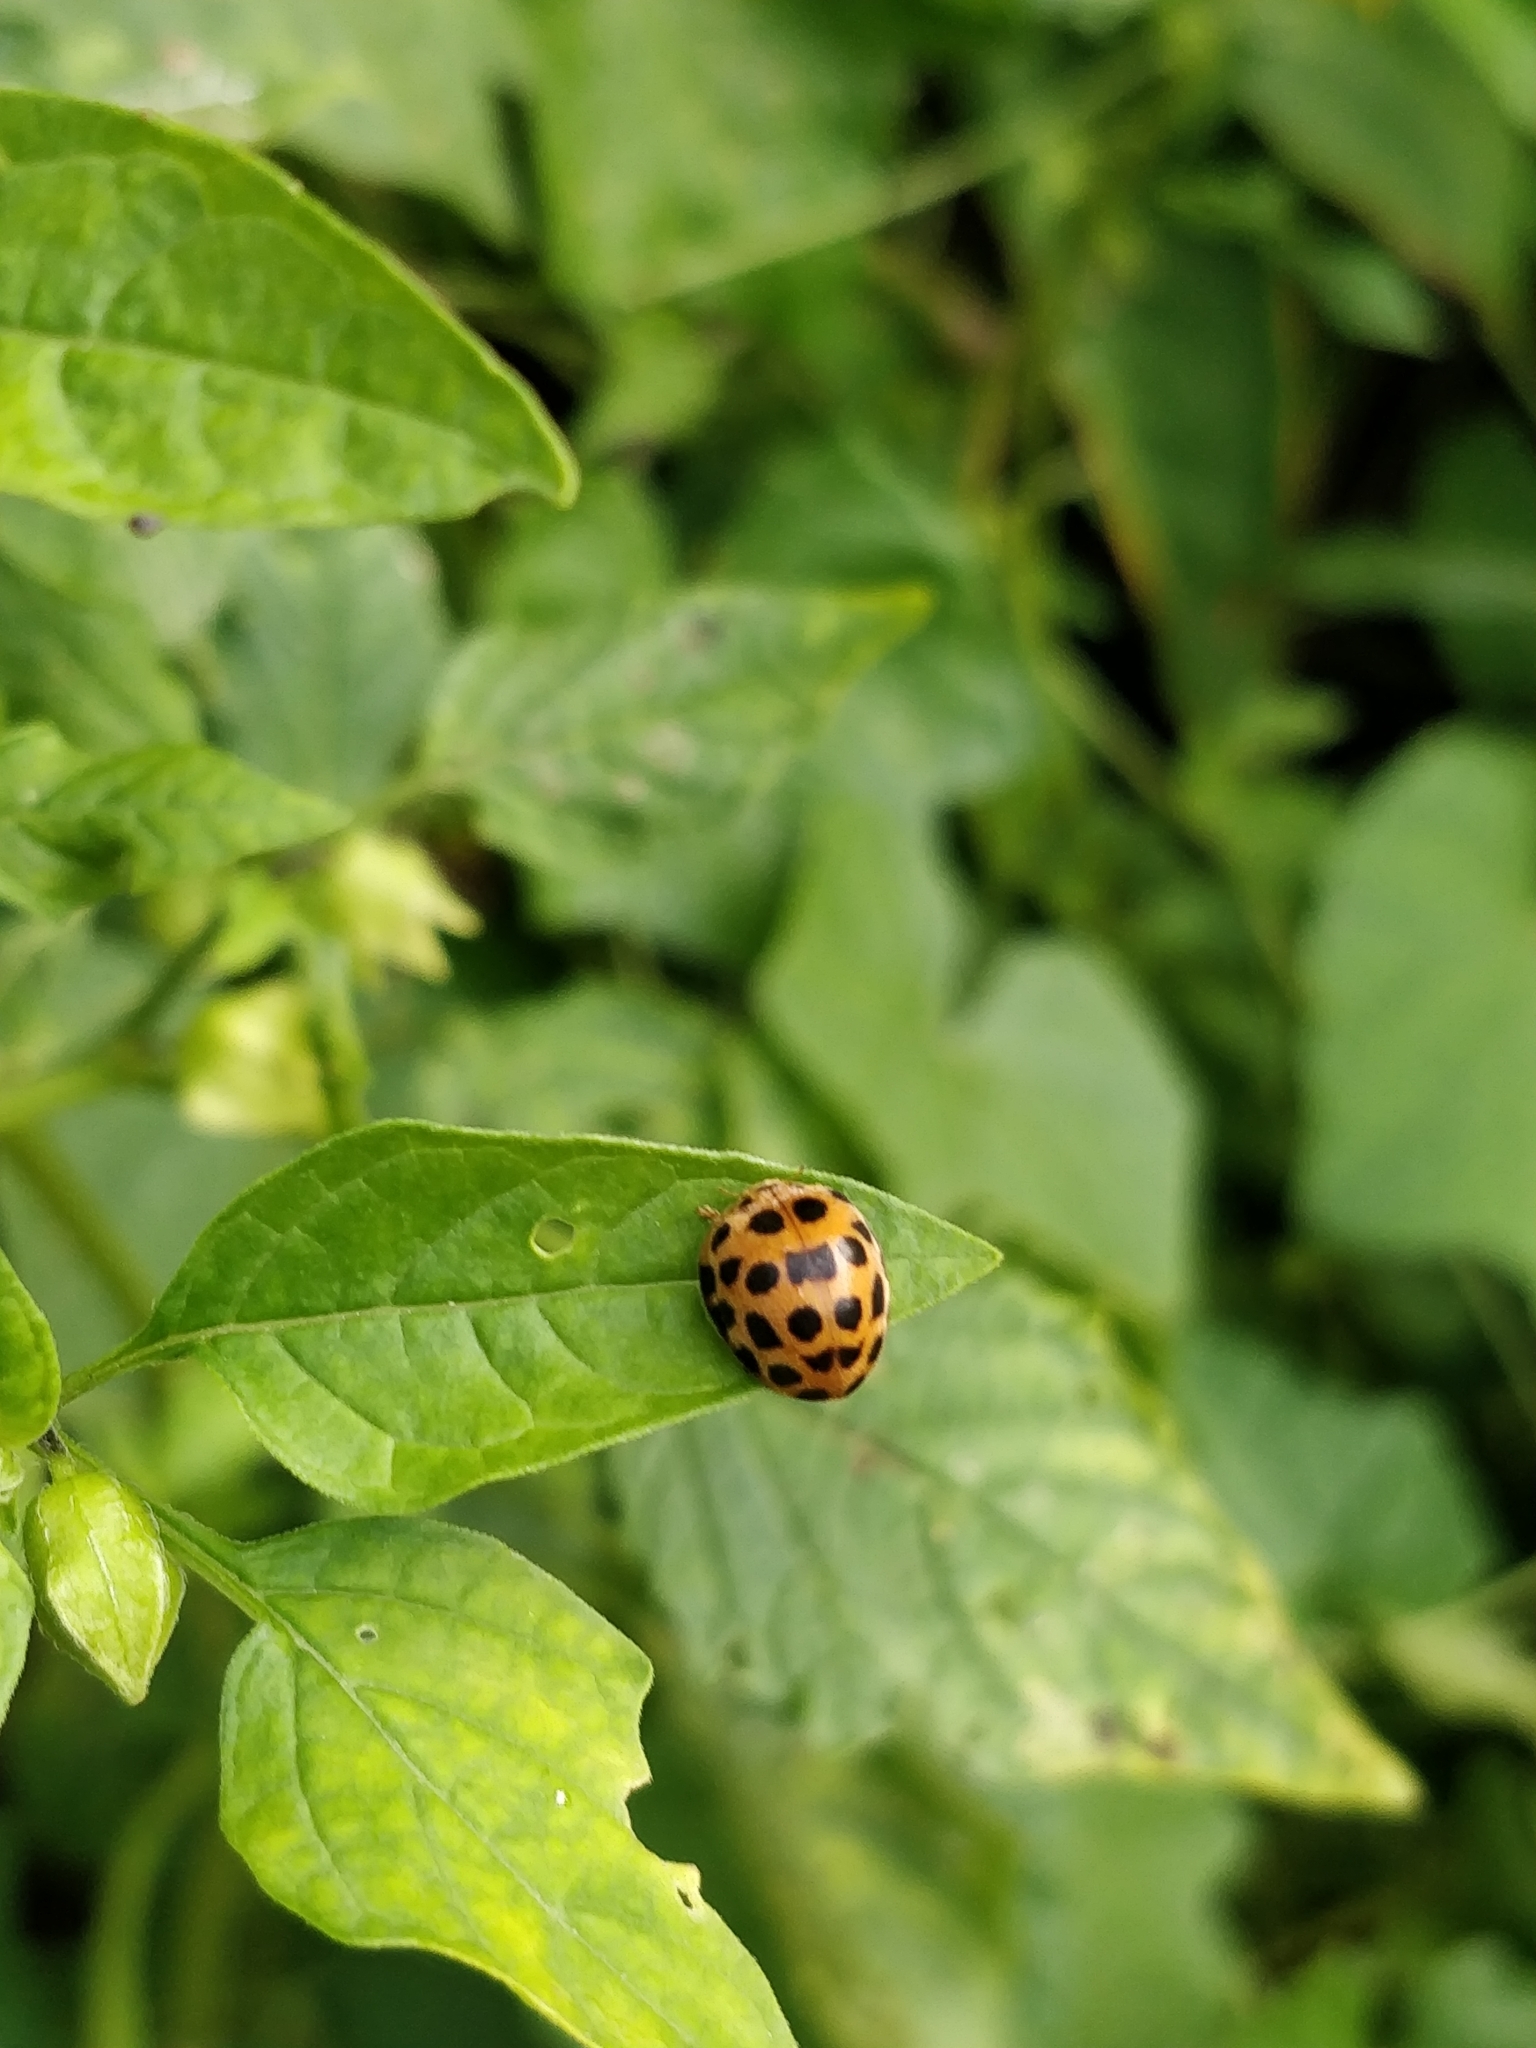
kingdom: Animalia
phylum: Arthropoda
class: Insecta
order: Coleoptera
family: Coccinellidae
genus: Henosepilachna
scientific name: Henosepilachna vigintioctopunctata
